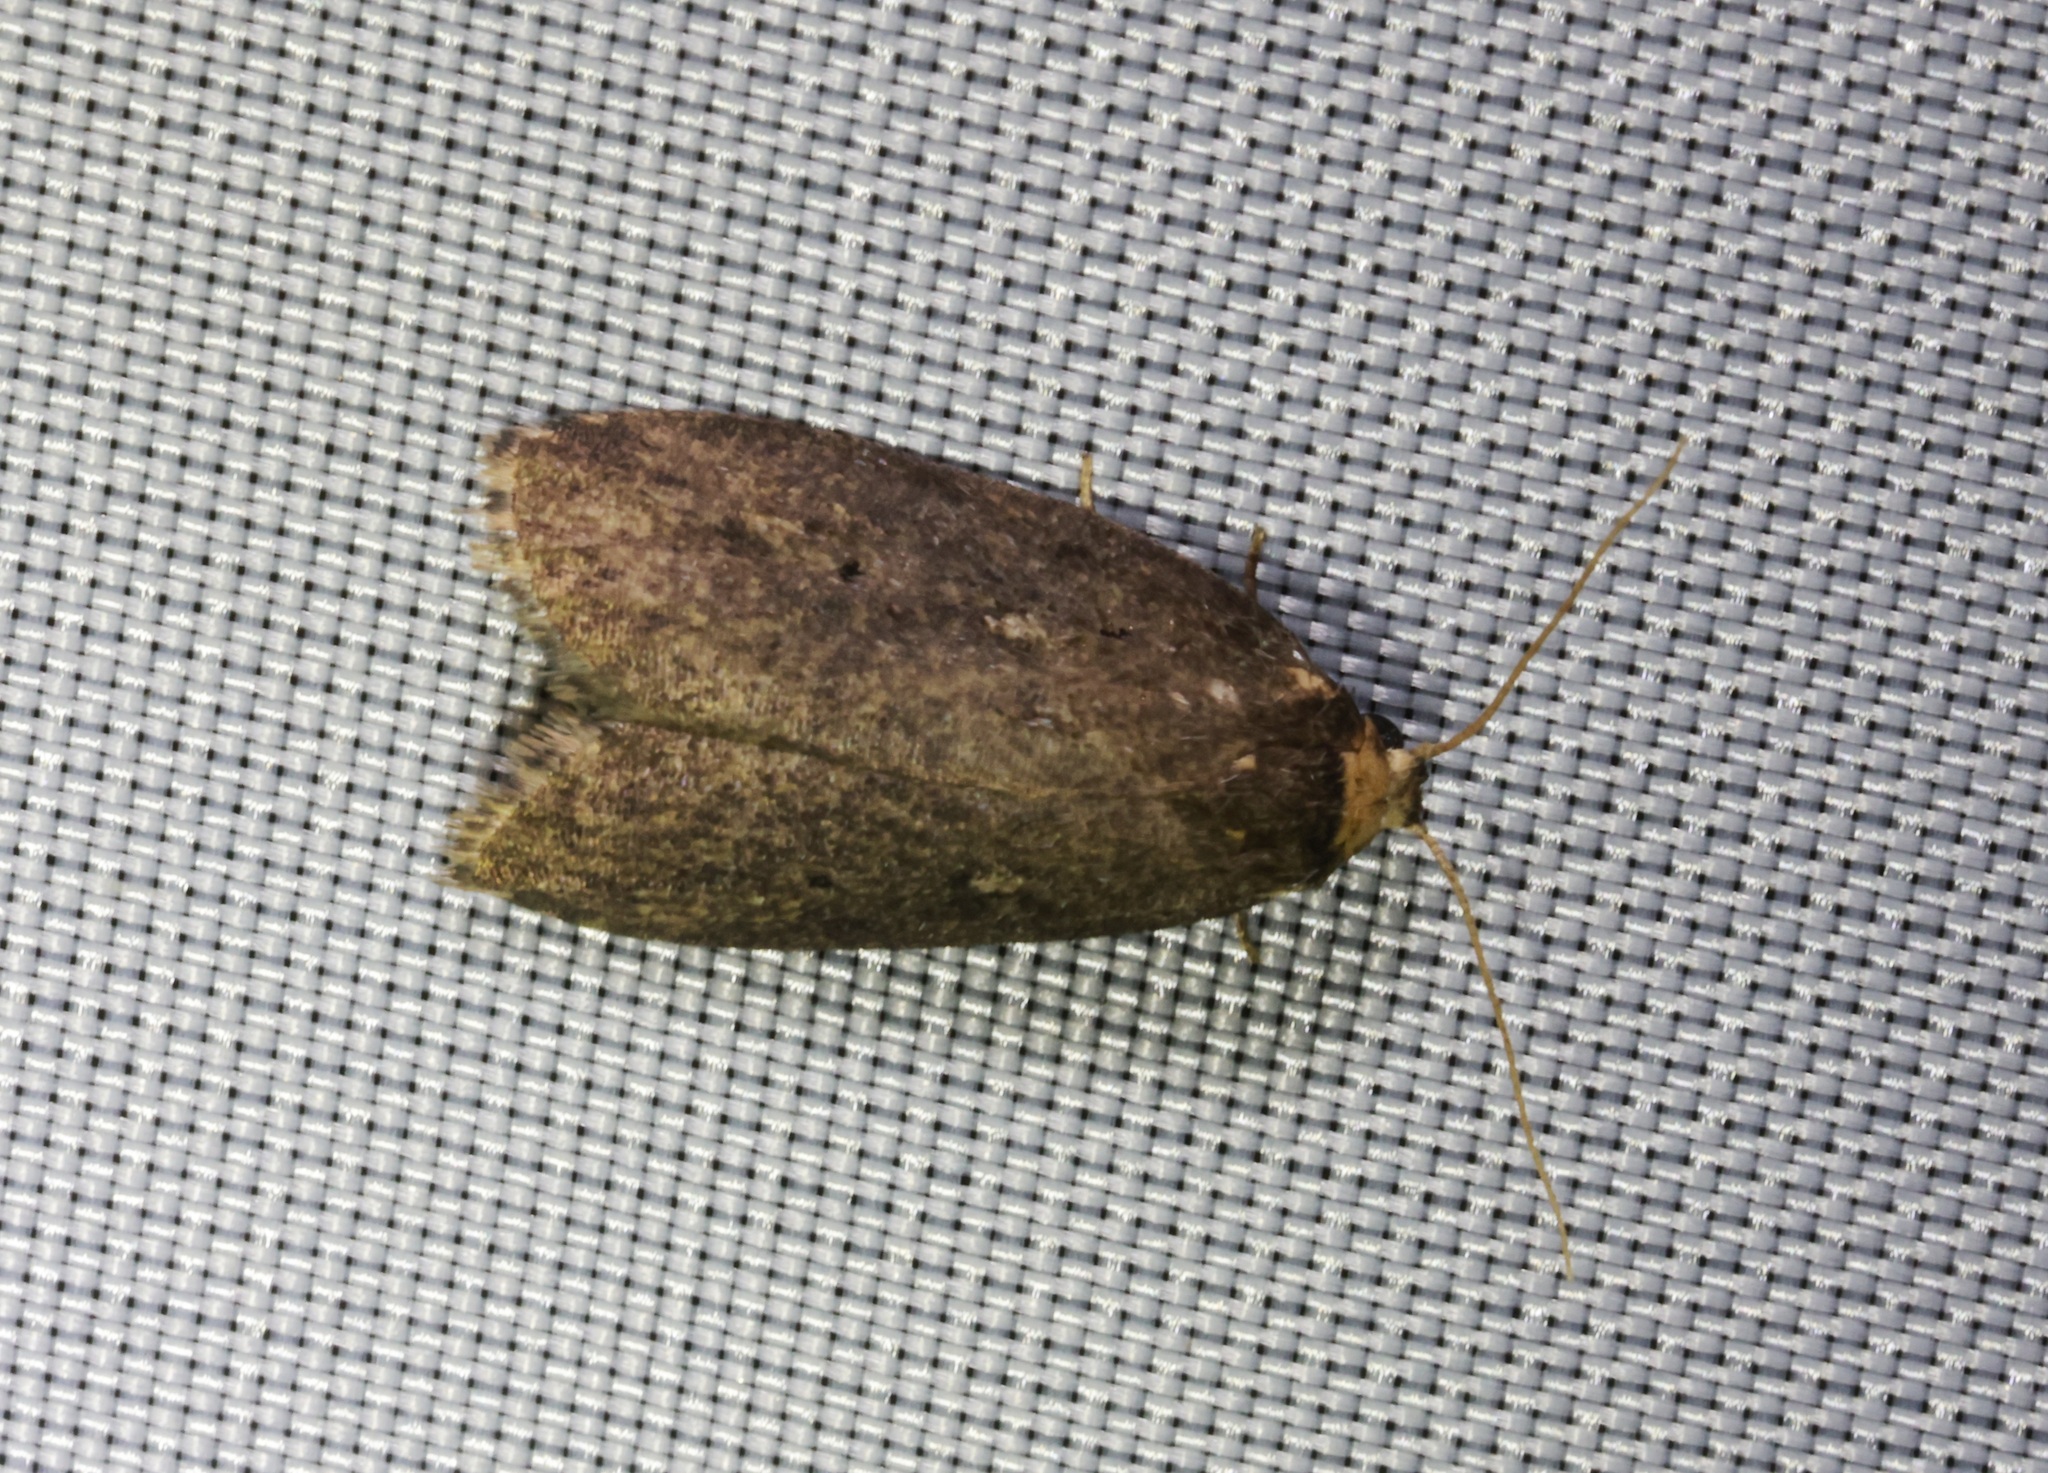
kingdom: Animalia
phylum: Arthropoda
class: Insecta
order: Lepidoptera
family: Erebidae
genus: Eugoa
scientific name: Eugoa brunnea
